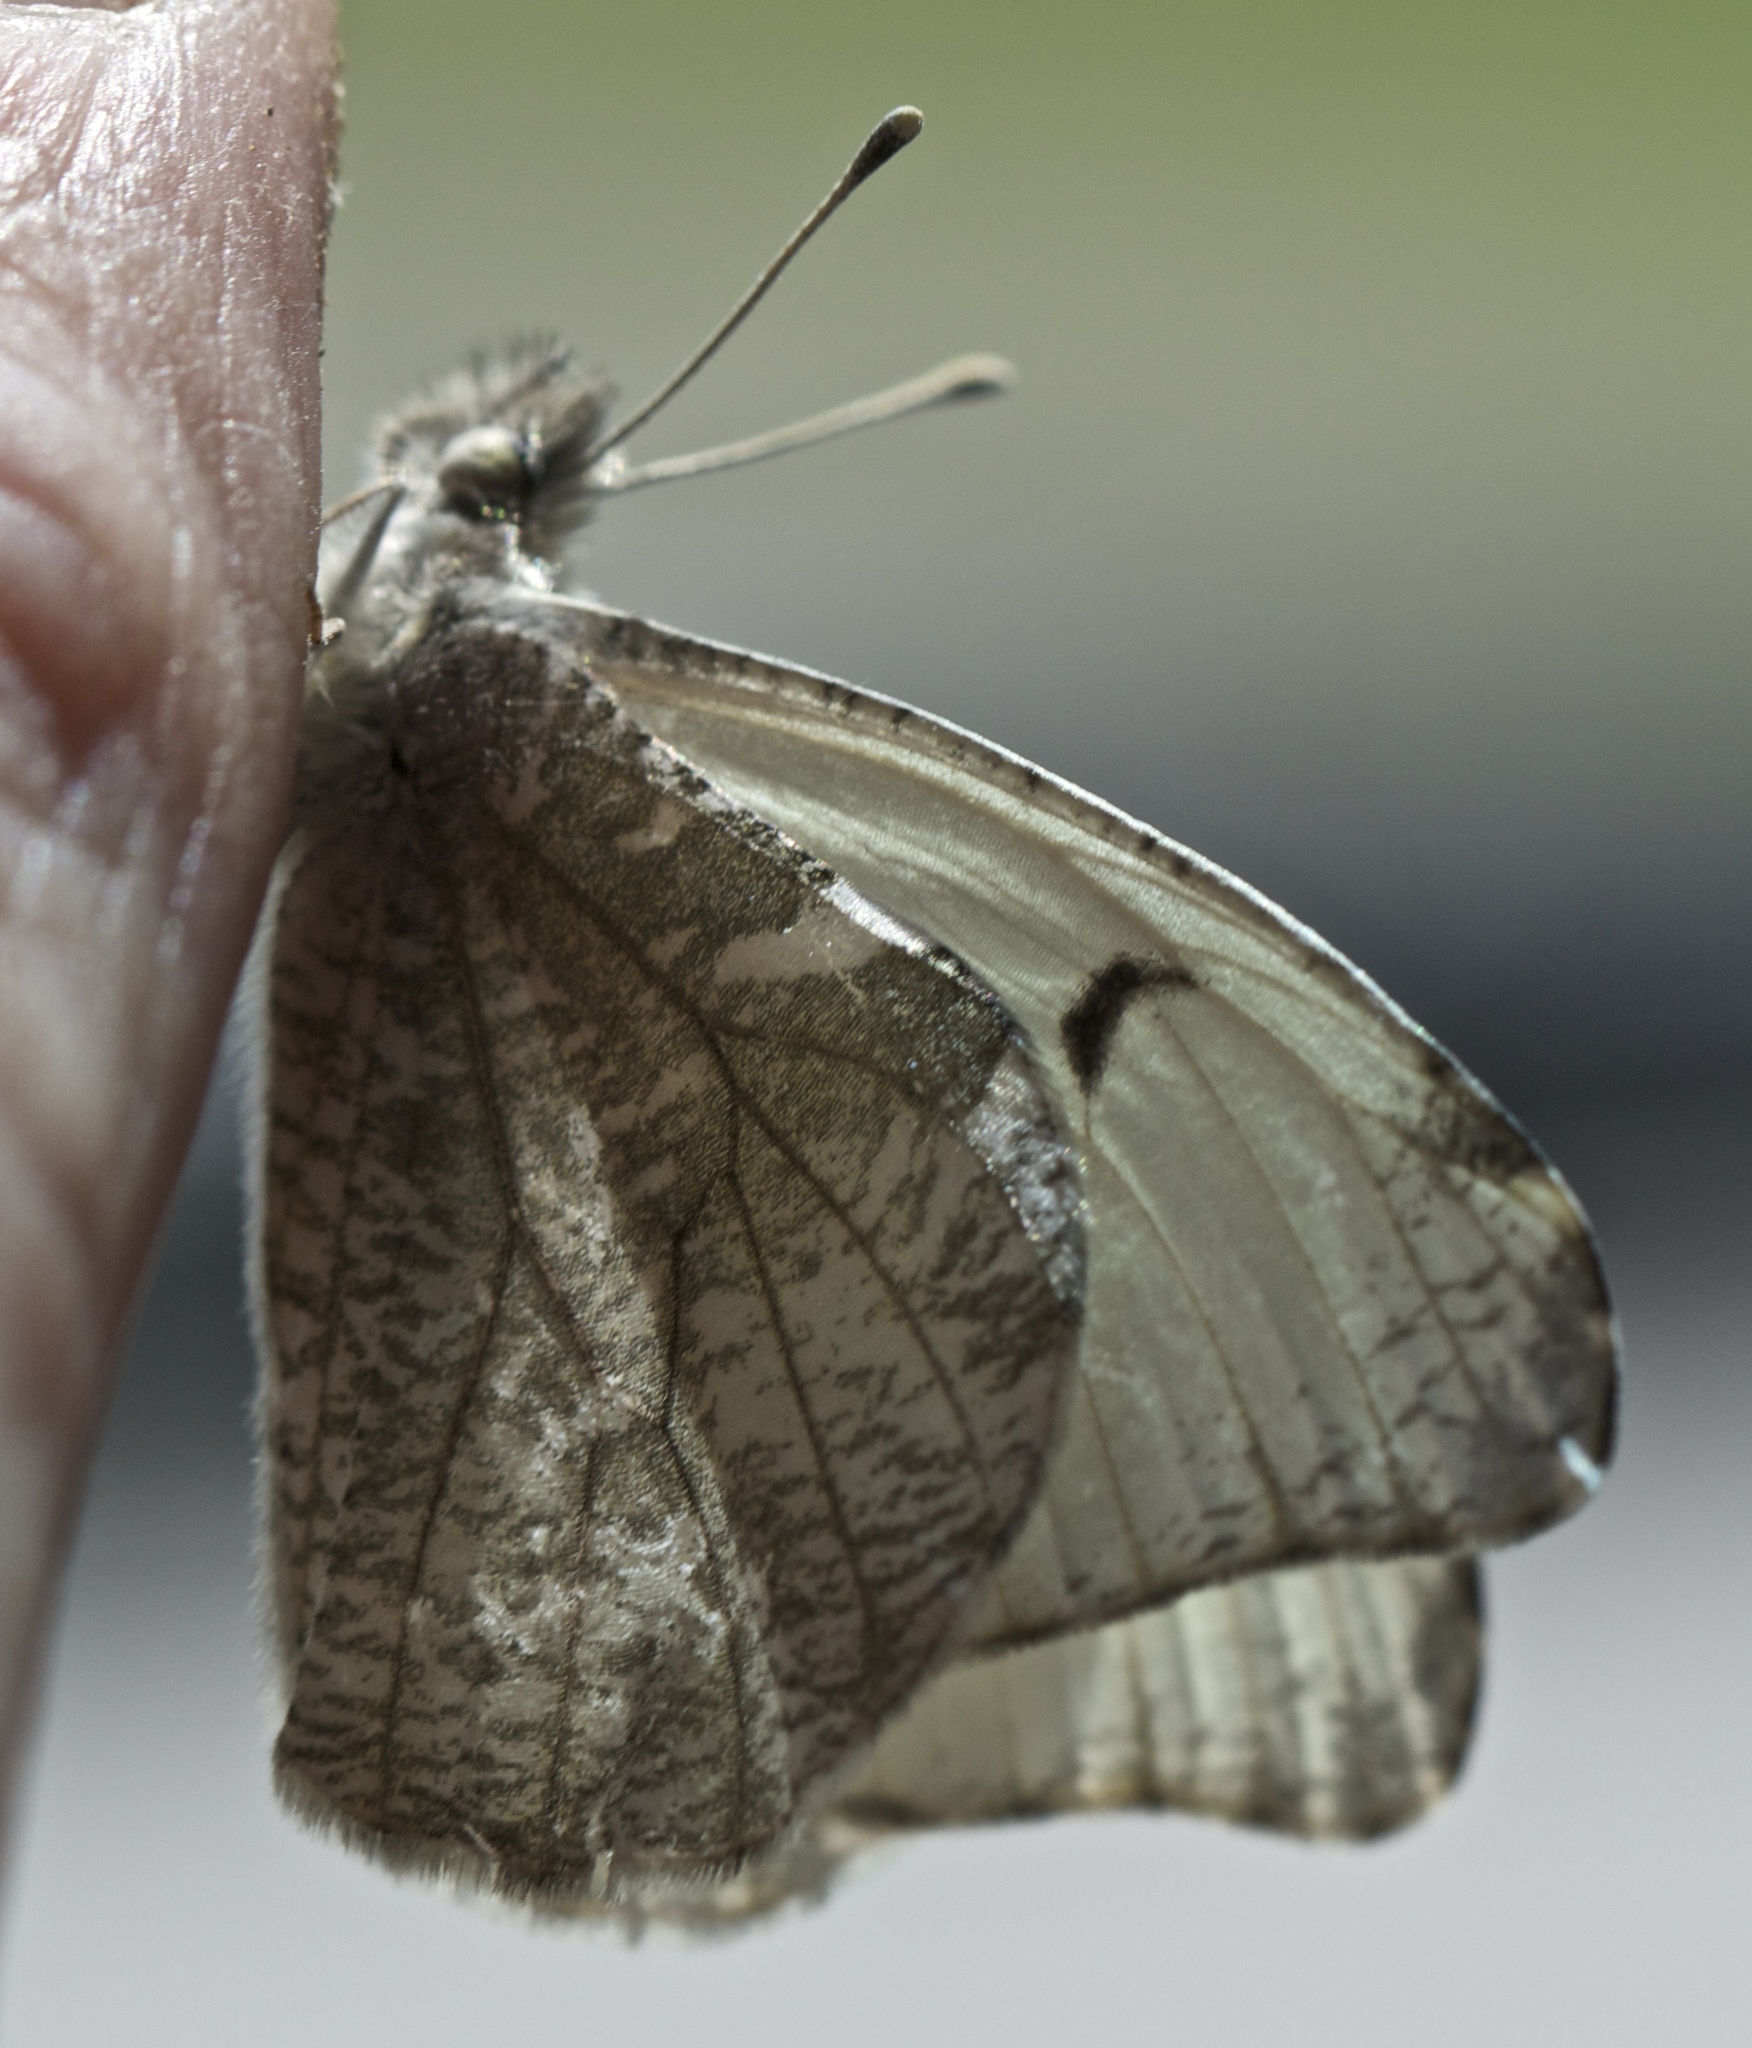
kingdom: Animalia
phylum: Arthropoda
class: Insecta
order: Lepidoptera
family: Pieridae
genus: Anthocharis
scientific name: Anthocharis lanceolata
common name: Gray marble
